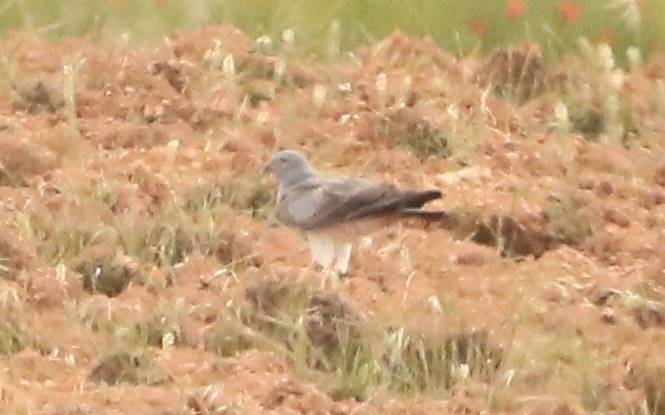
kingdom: Animalia
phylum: Chordata
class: Aves
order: Accipitriformes
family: Accipitridae
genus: Circus
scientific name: Circus pygargus
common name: Montagu's harrier
